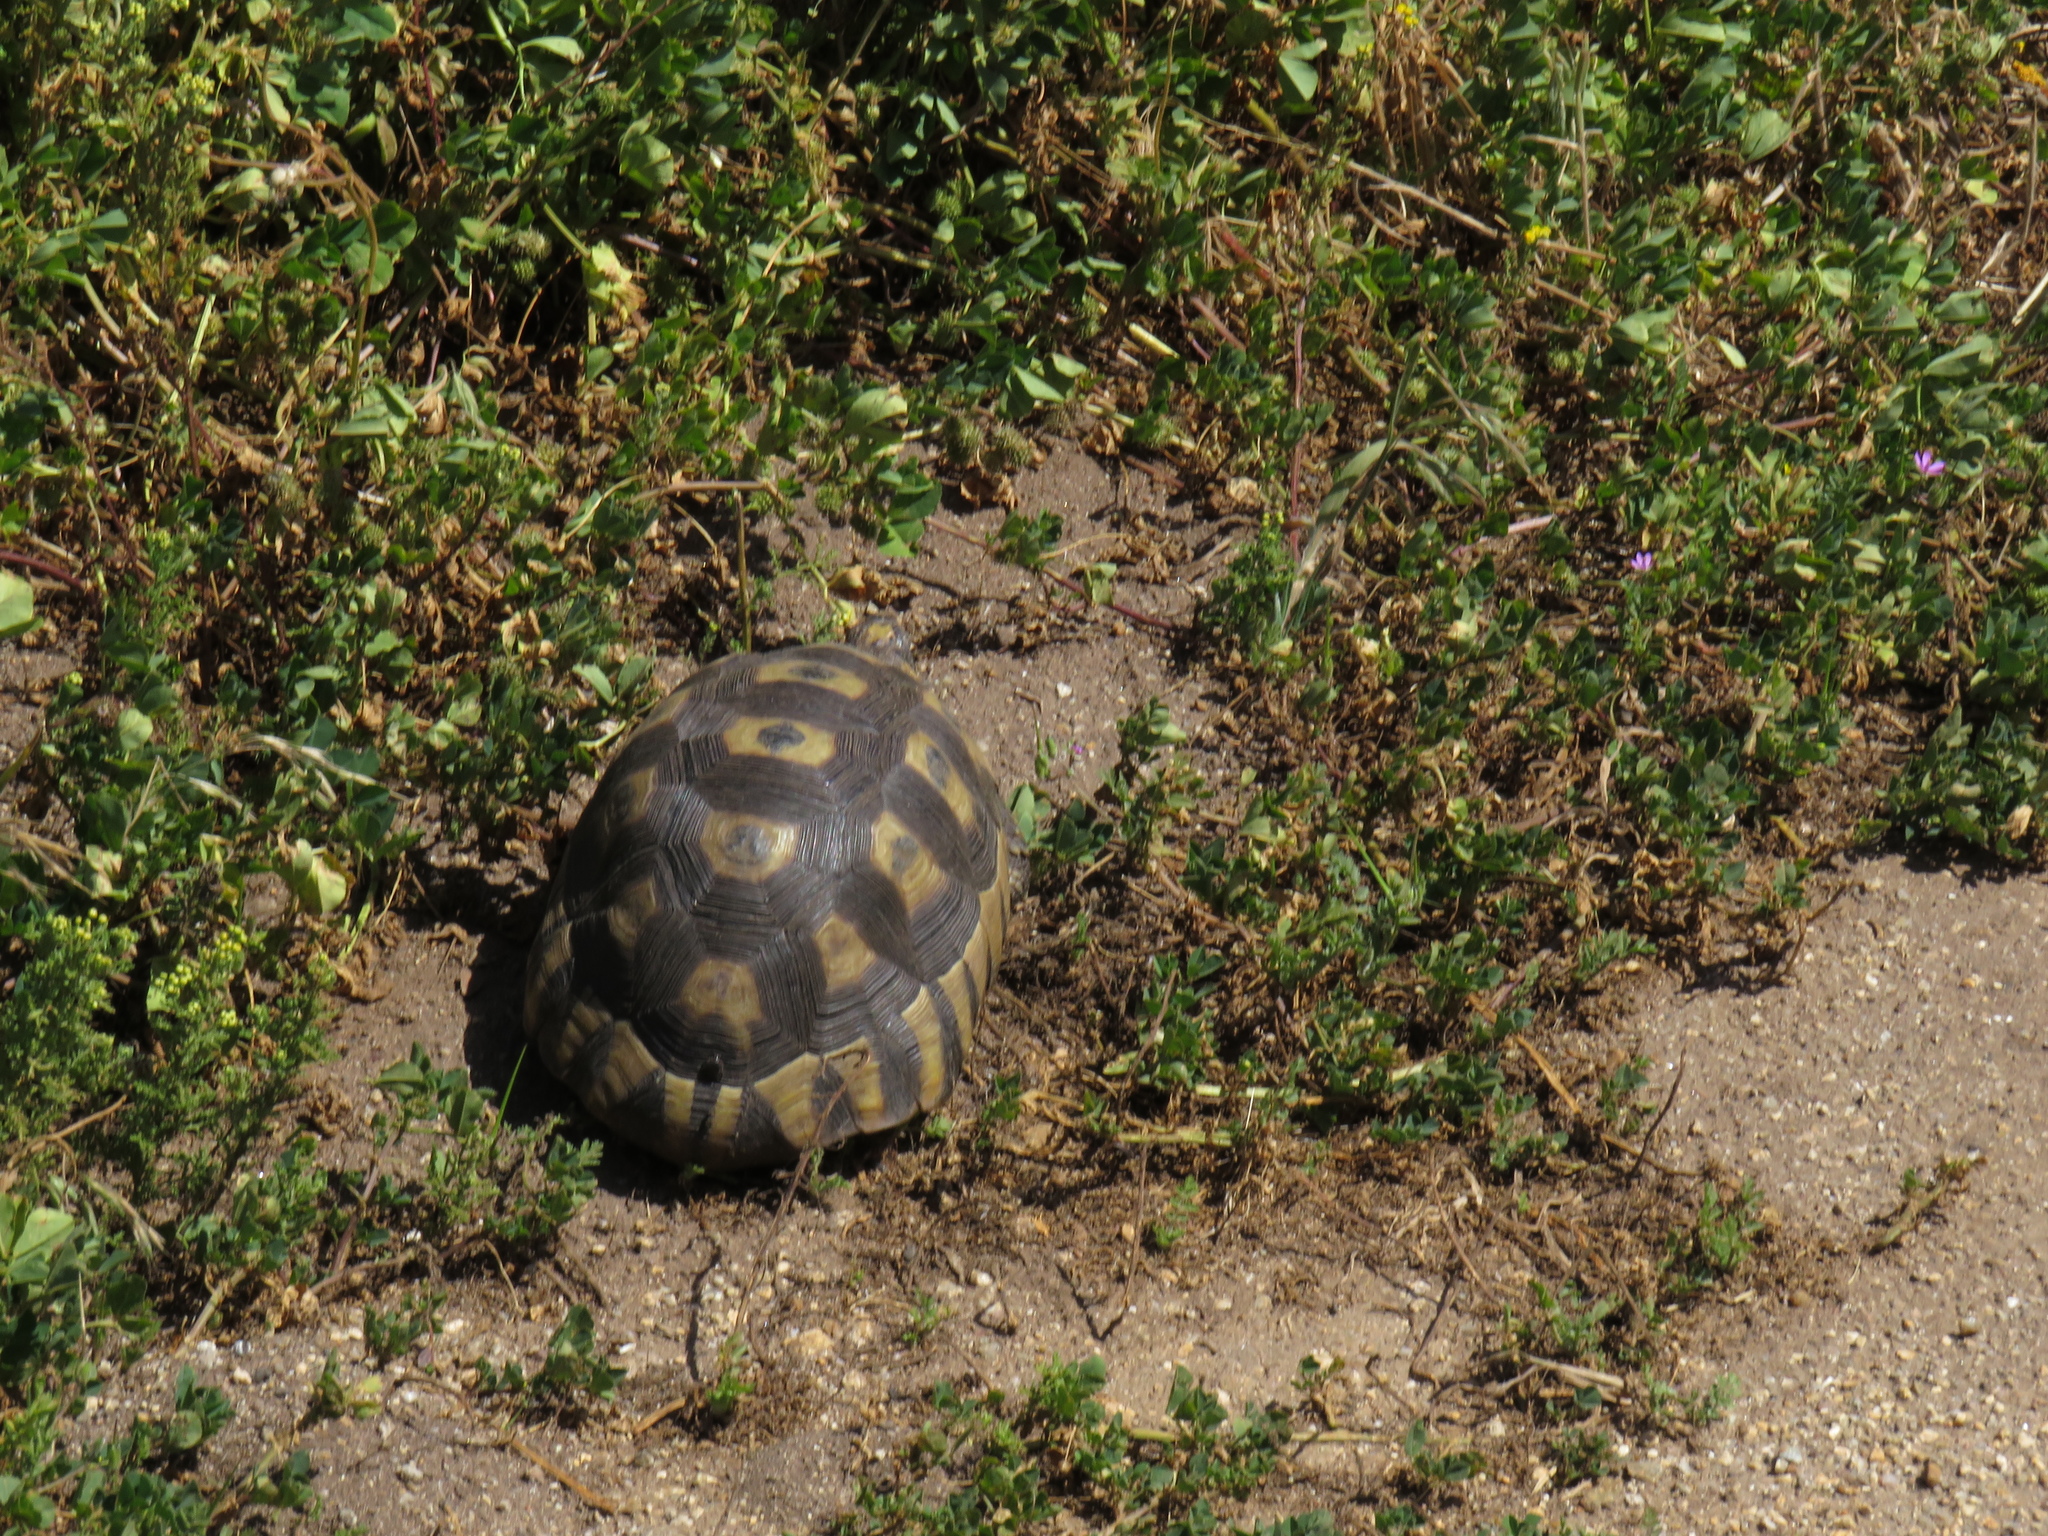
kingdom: Animalia
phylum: Chordata
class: Testudines
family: Testudinidae
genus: Chersina
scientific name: Chersina angulata
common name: South african bowsprit tortoise
